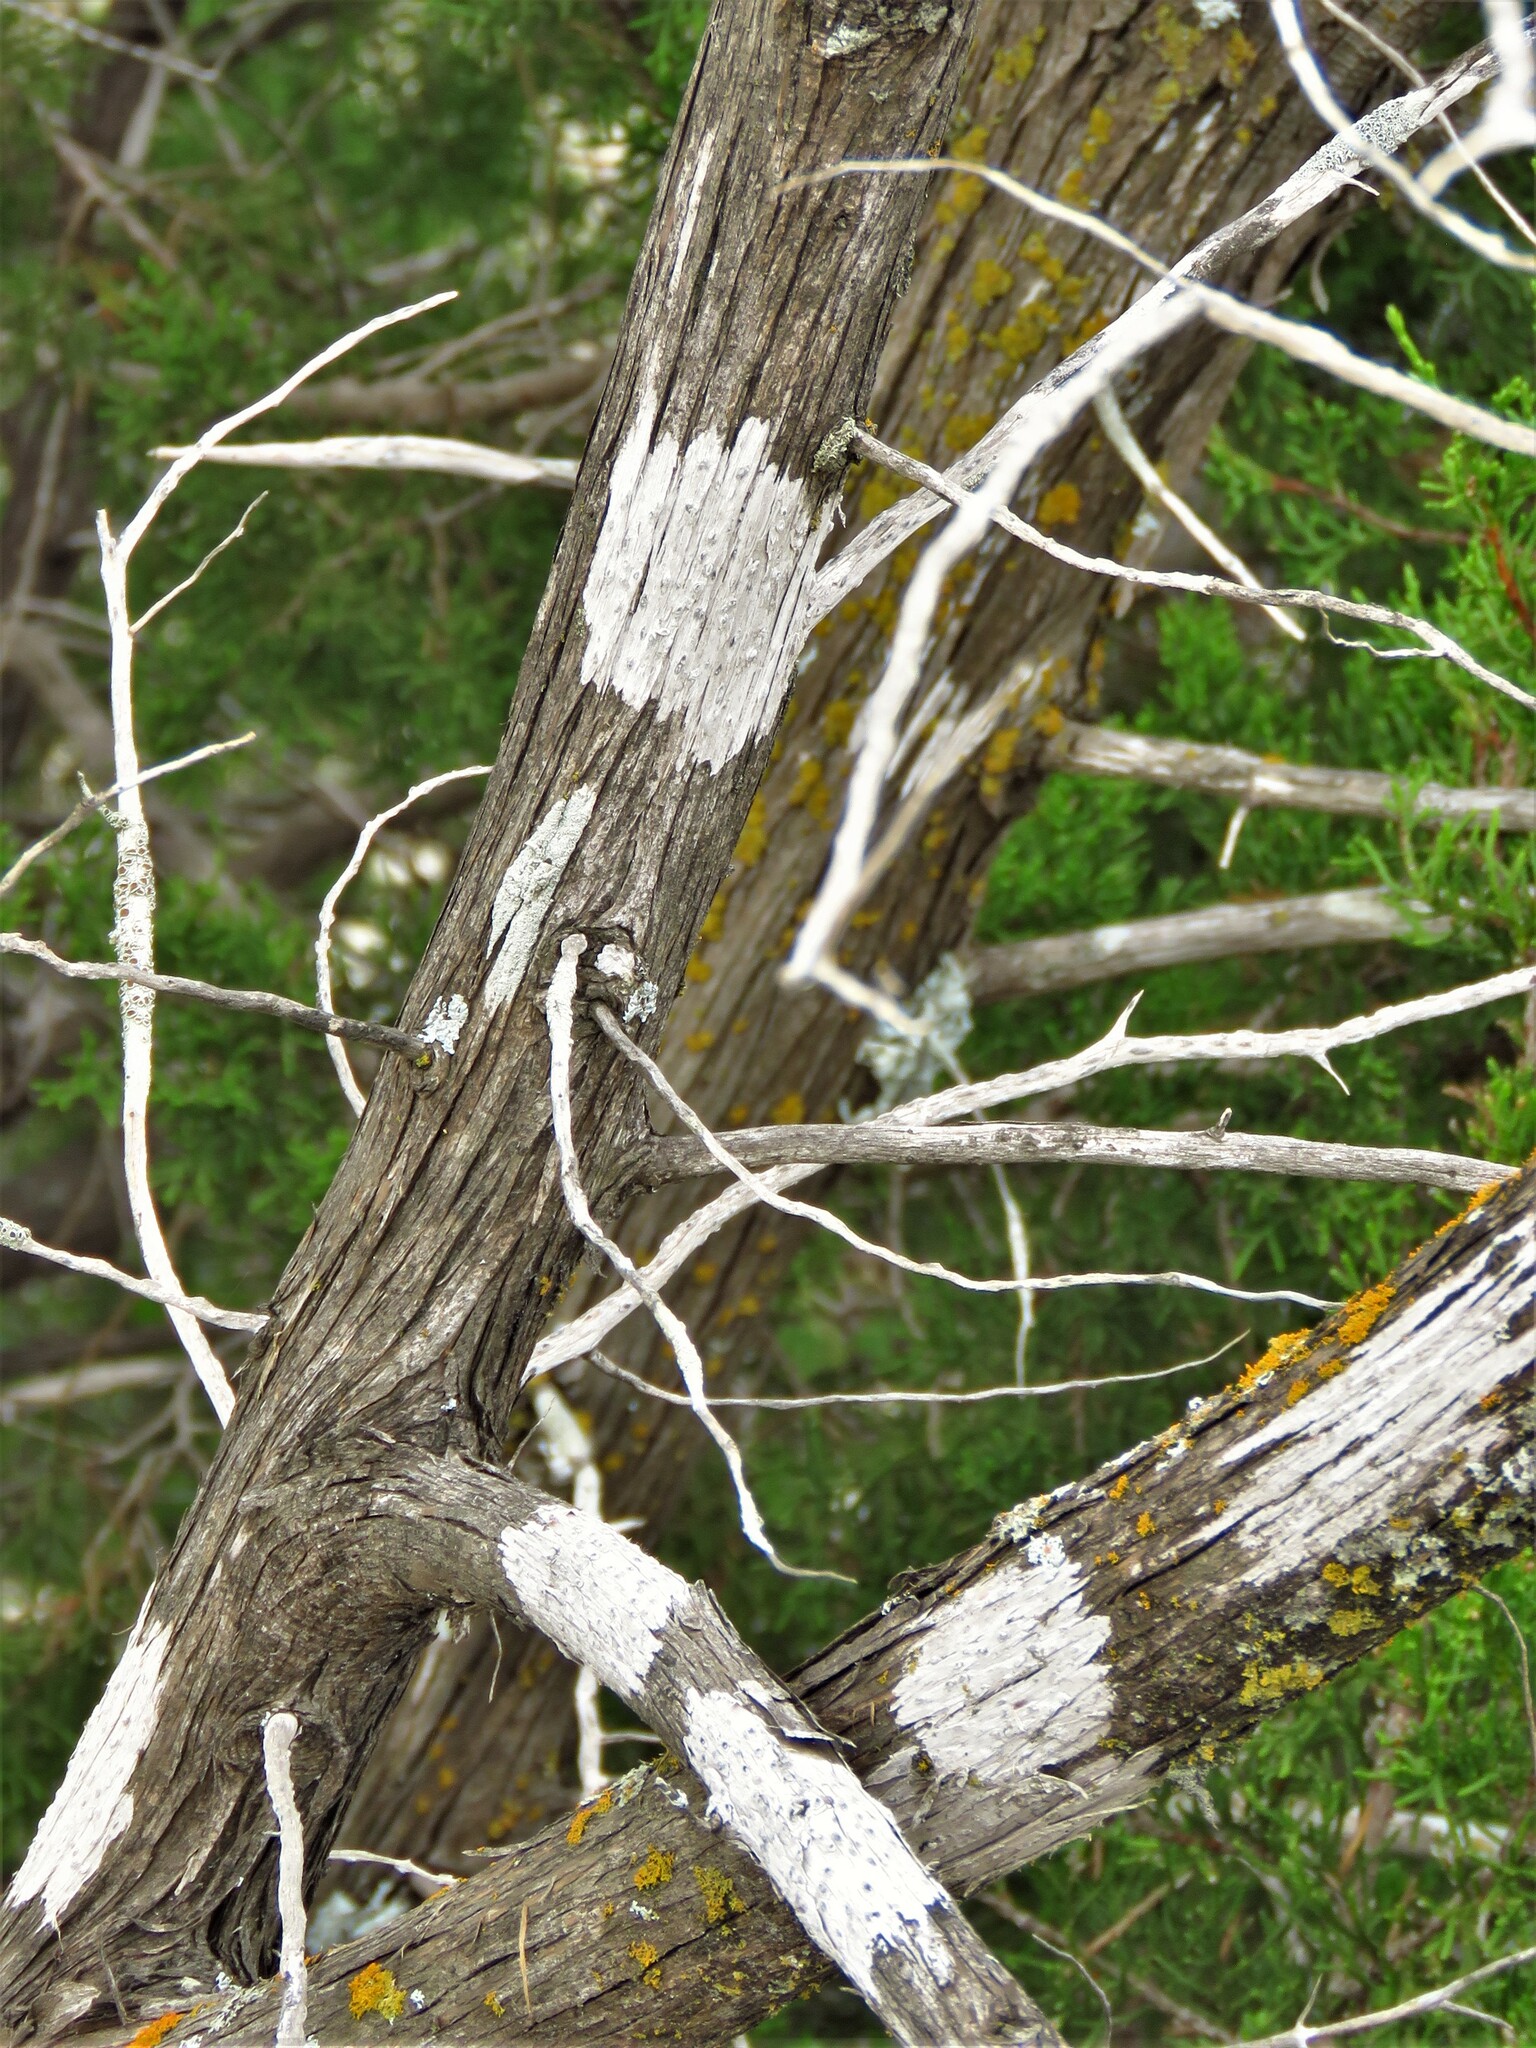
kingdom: Fungi
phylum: Ascomycota
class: Lecanoromycetes
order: Ostropales
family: Stictidaceae
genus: Robergea
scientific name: Robergea
